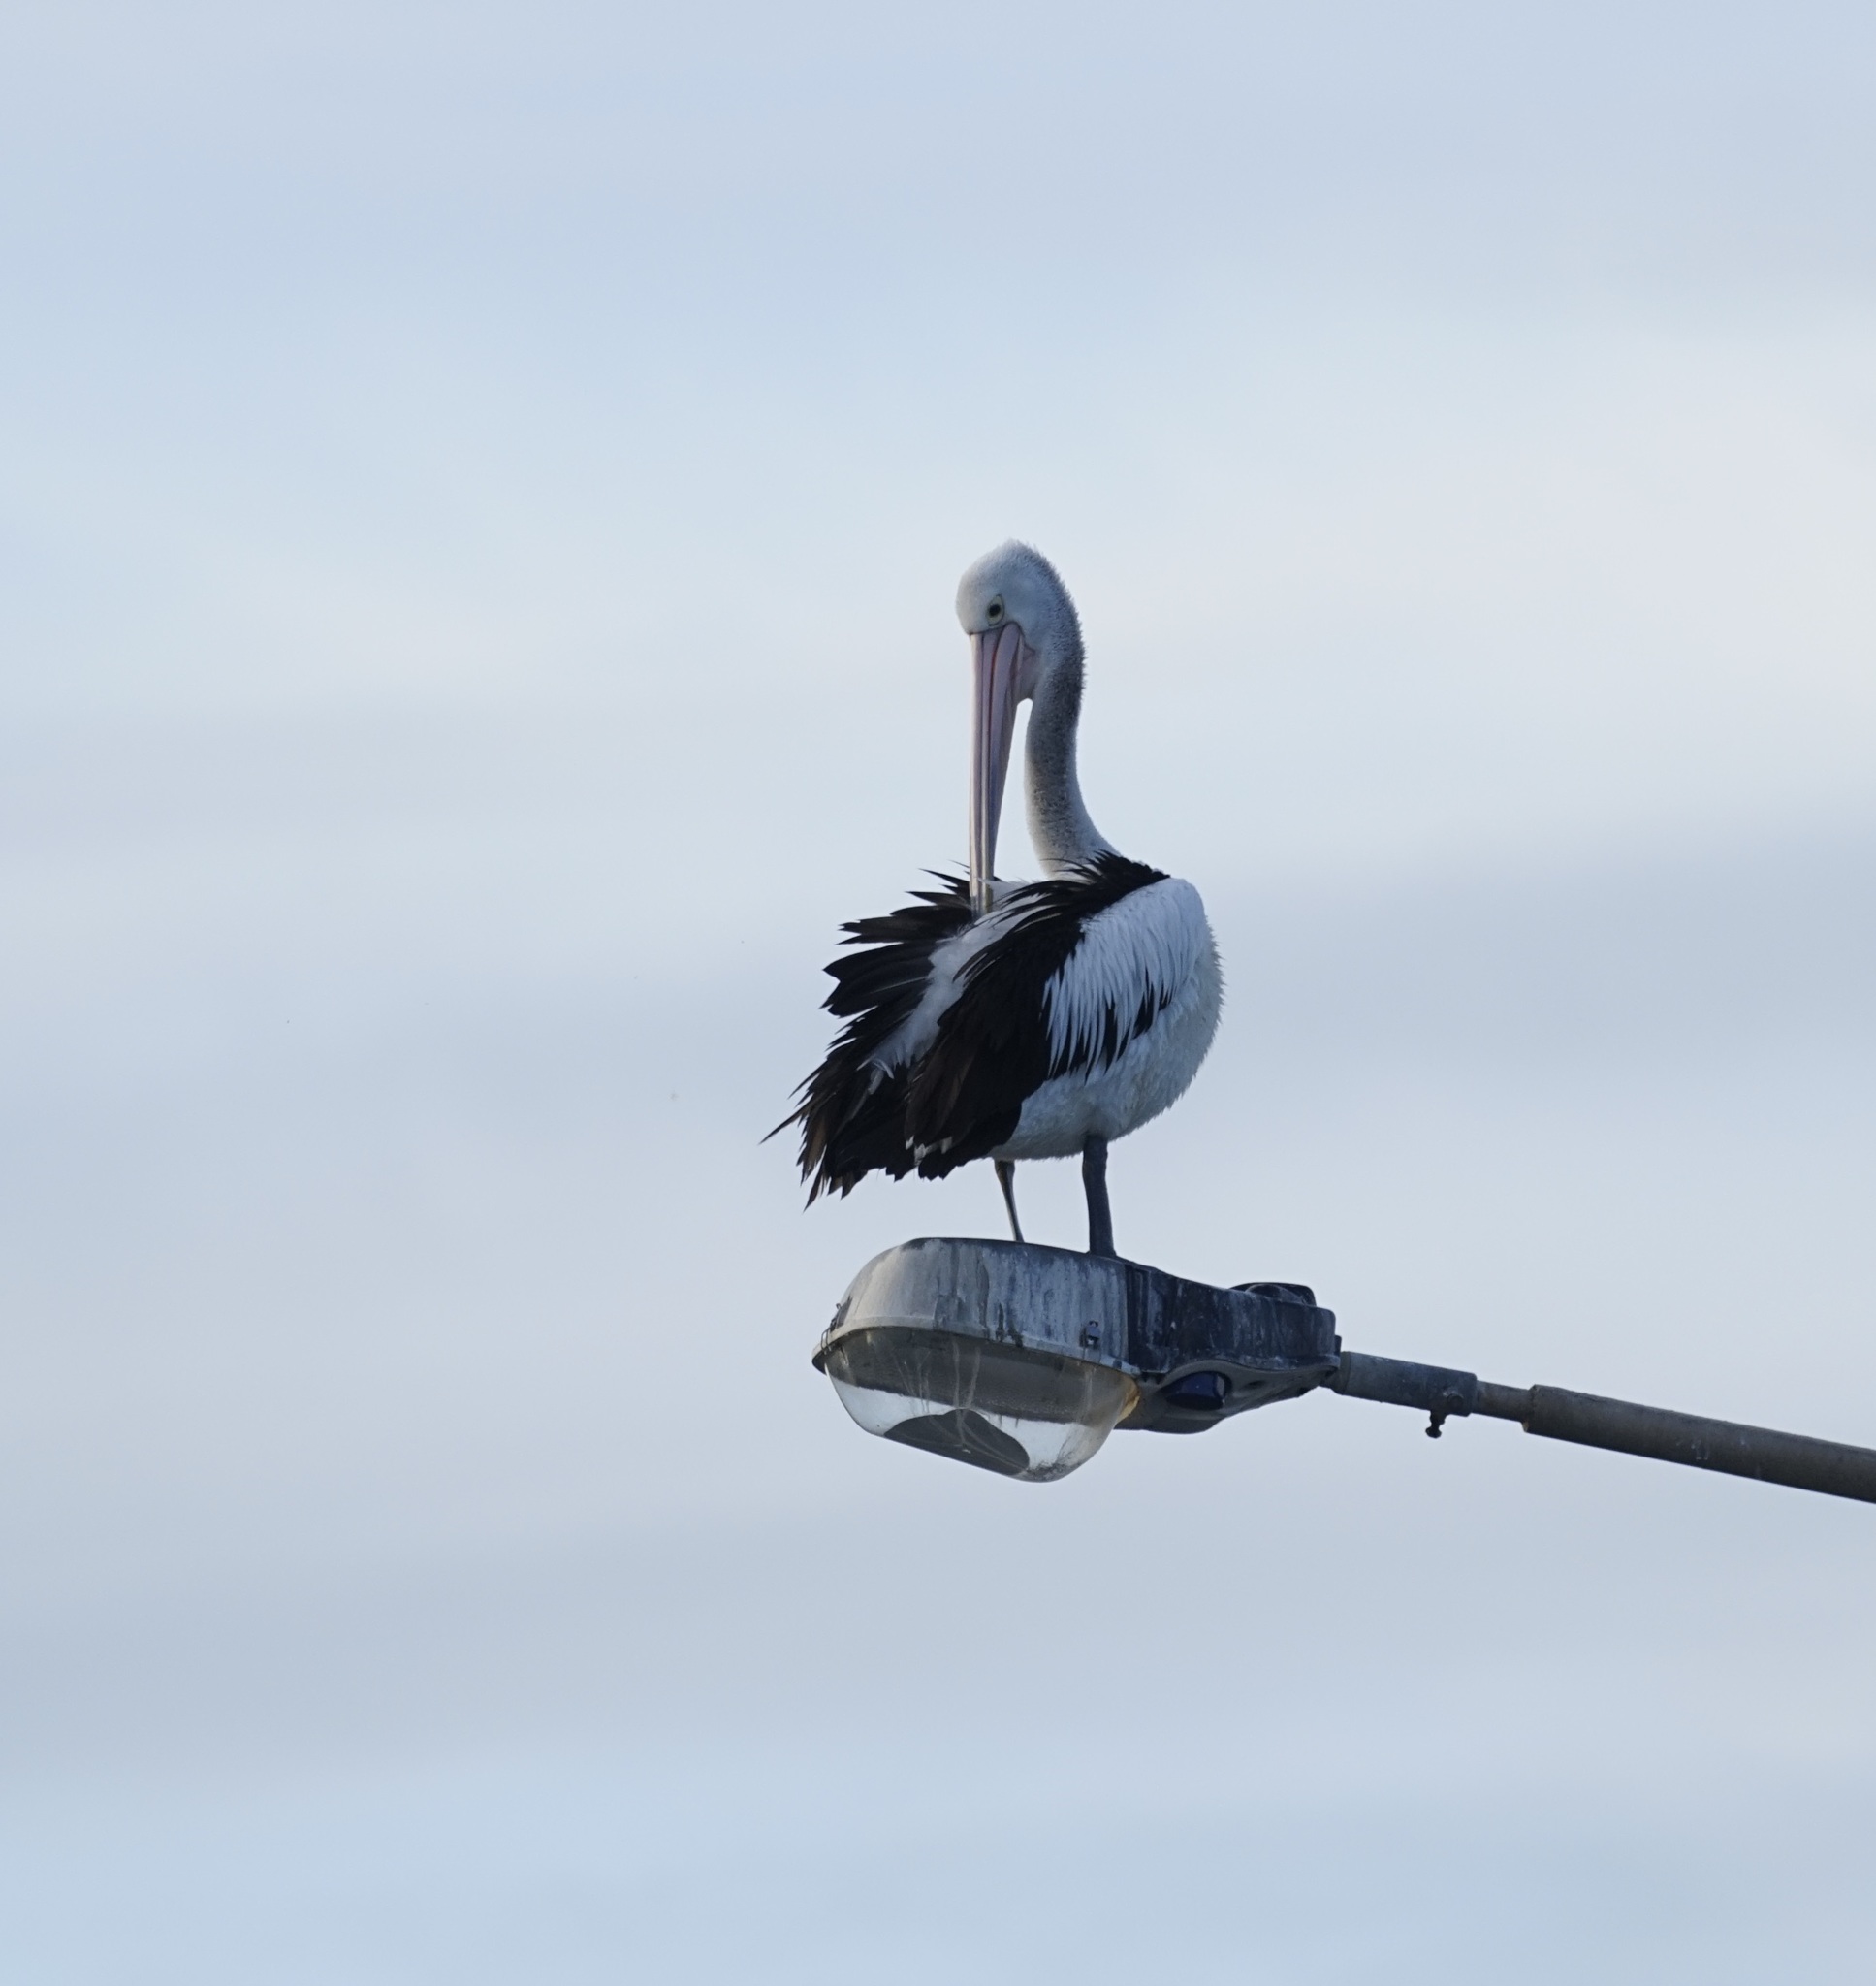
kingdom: Animalia
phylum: Chordata
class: Aves
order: Pelecaniformes
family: Pelecanidae
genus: Pelecanus
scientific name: Pelecanus conspicillatus
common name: Australian pelican
